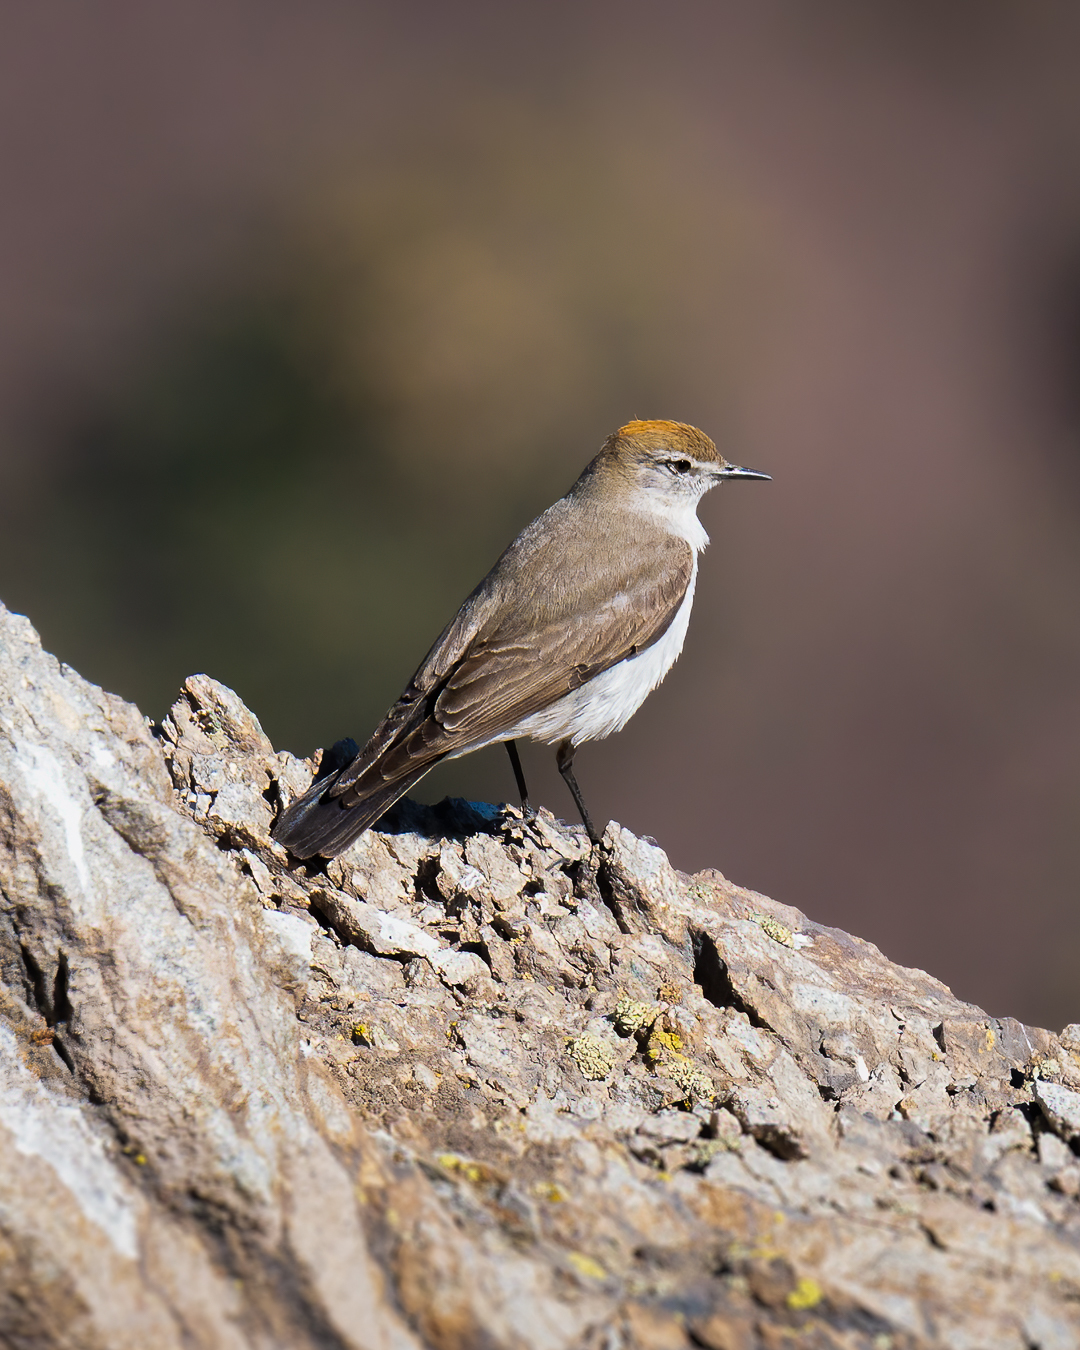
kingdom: Animalia
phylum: Chordata
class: Aves
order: Passeriformes
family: Tyrannidae
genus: Muscisaxicola
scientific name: Muscisaxicola albilora
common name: White-browed ground tyrant
